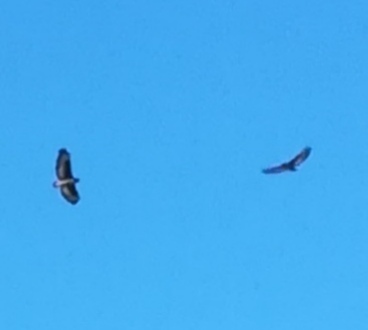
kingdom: Animalia
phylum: Chordata
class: Aves
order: Accipitriformes
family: Accipitridae
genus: Buteo
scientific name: Buteo rufofuscus
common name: Jackal buzzard
